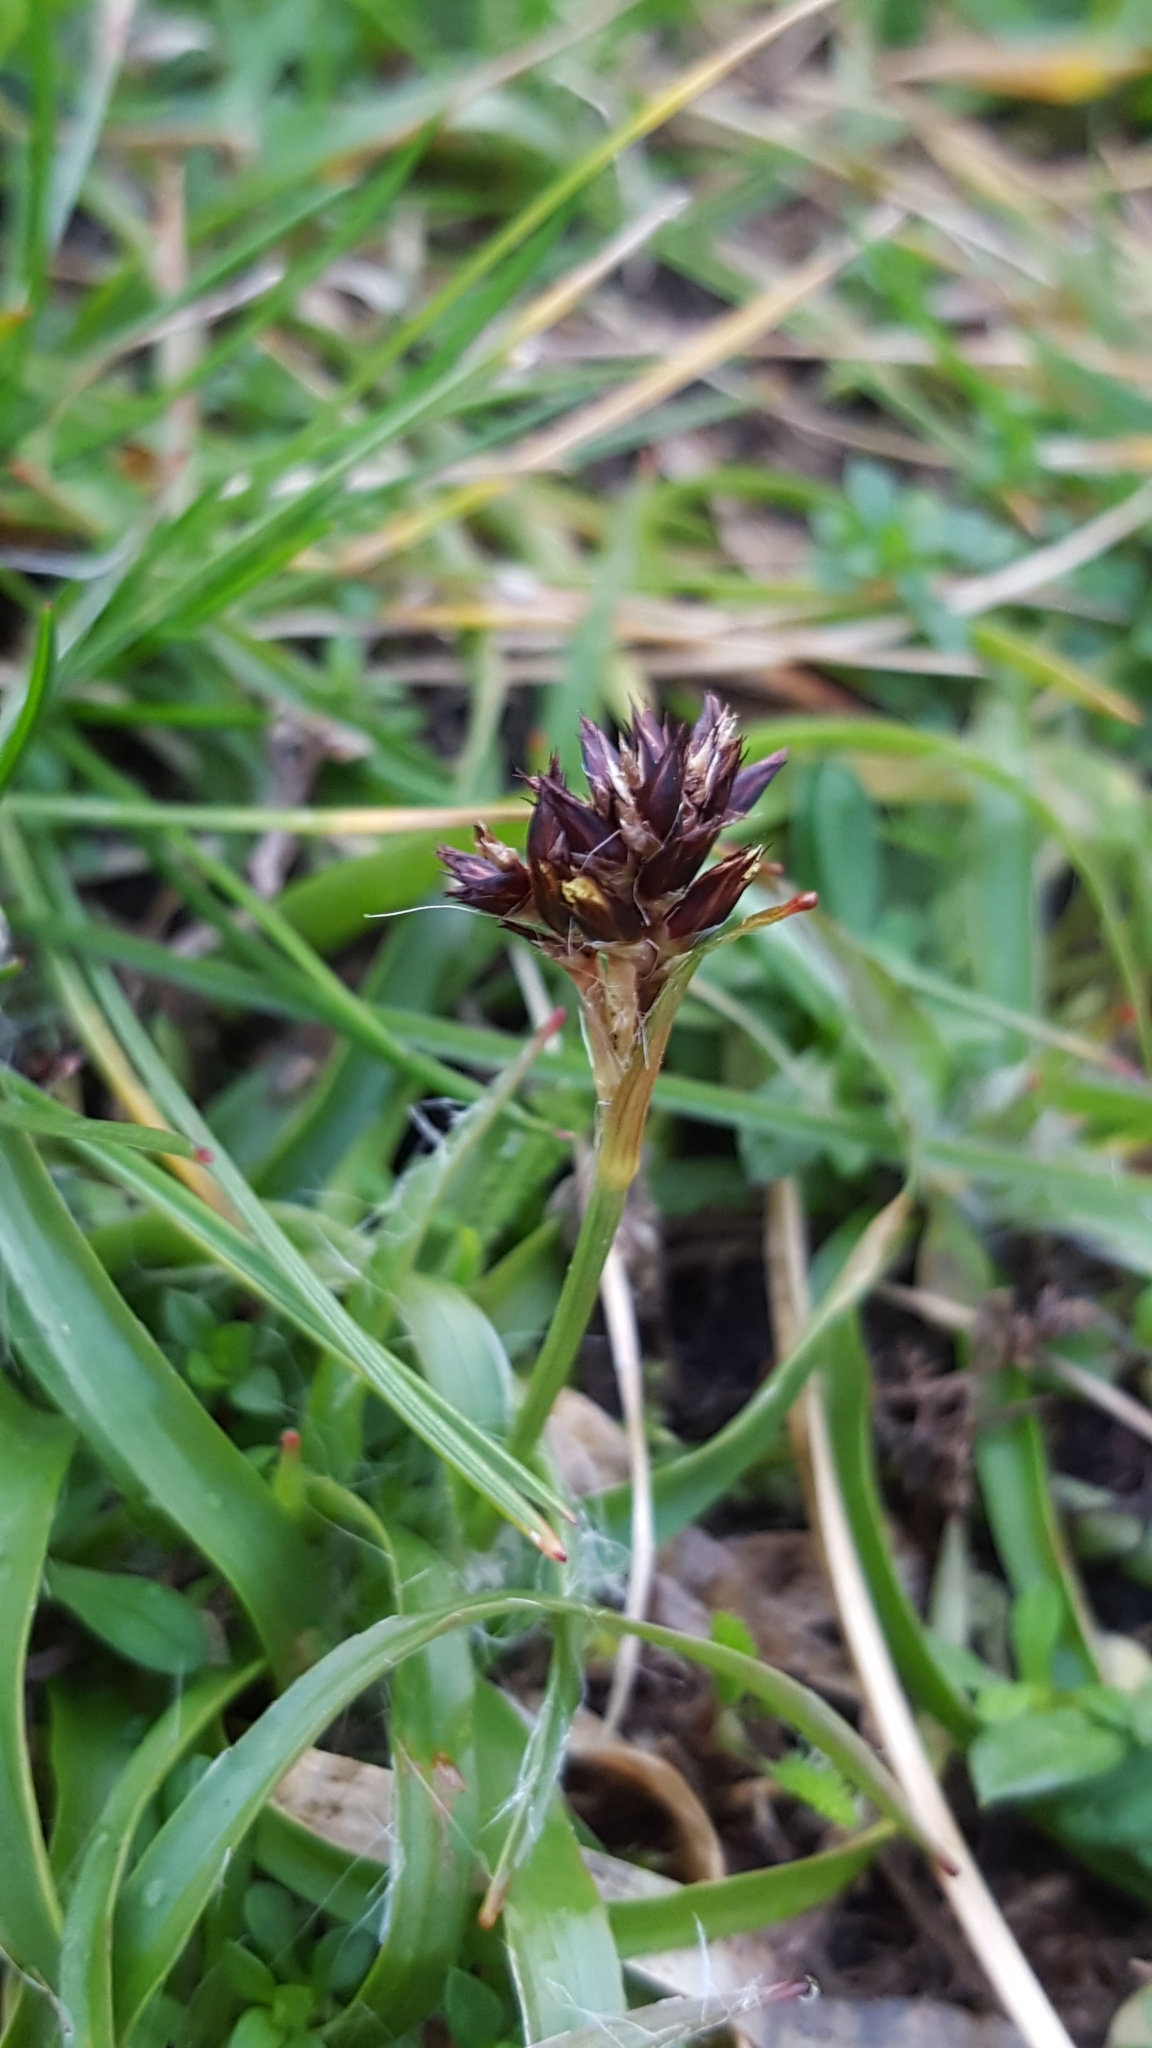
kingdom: Plantae
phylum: Tracheophyta
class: Liliopsida
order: Poales
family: Juncaceae
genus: Luzula
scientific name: Luzula campestris
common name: Field wood-rush
